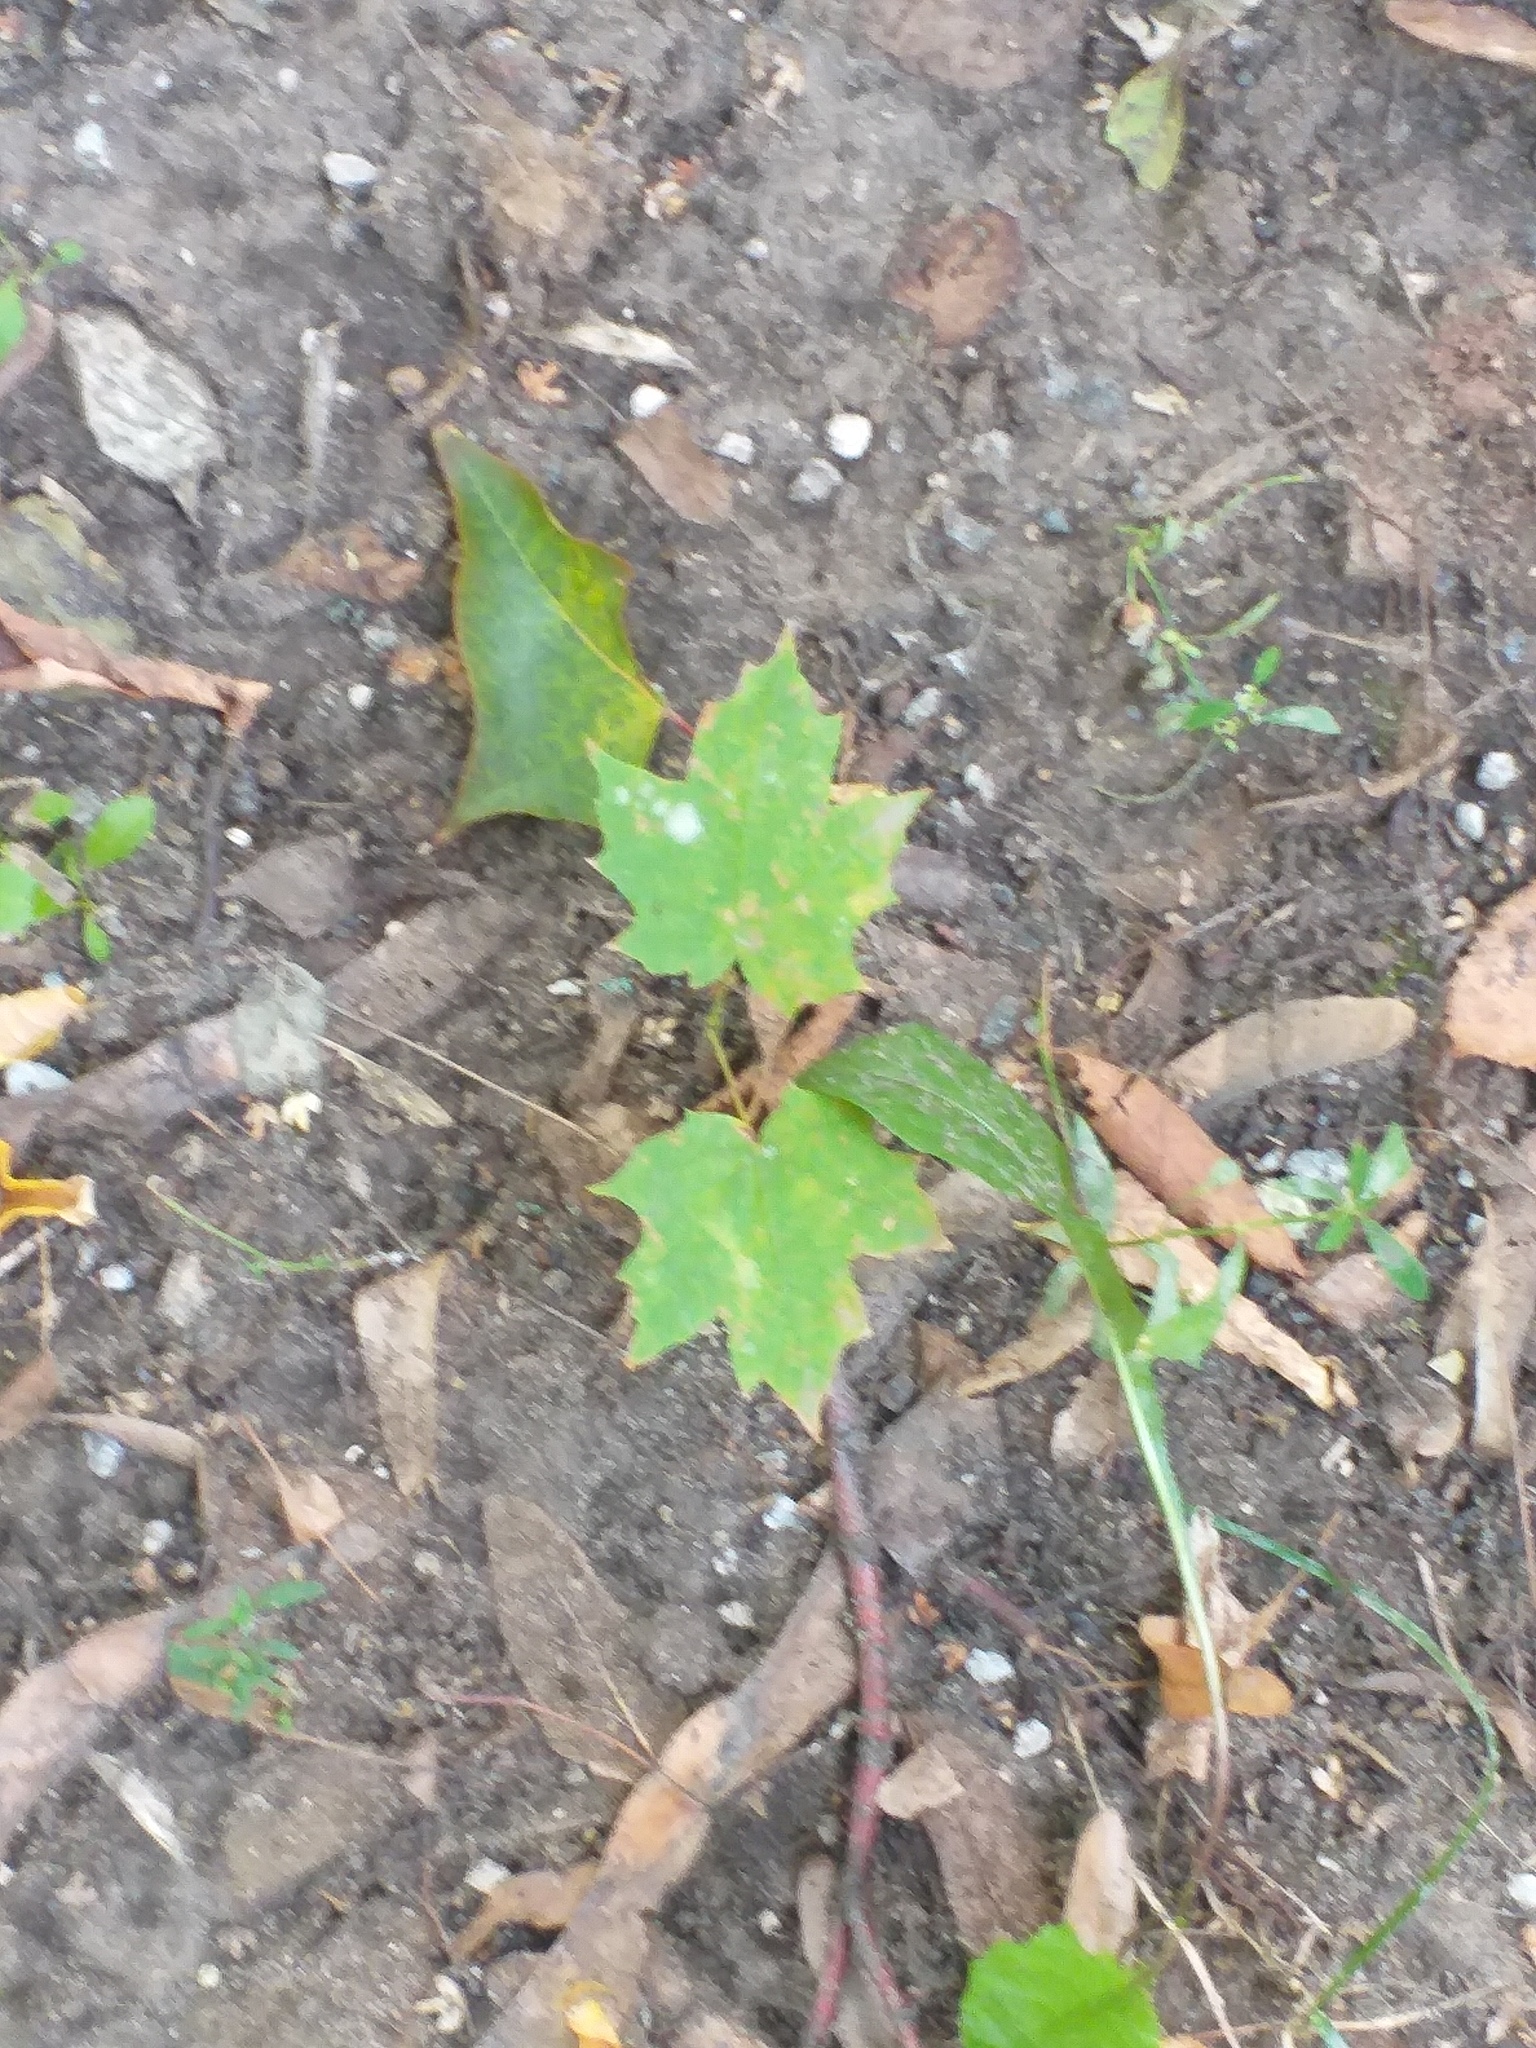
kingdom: Plantae
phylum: Tracheophyta
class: Magnoliopsida
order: Sapindales
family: Sapindaceae
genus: Acer
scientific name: Acer platanoides
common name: Norway maple
